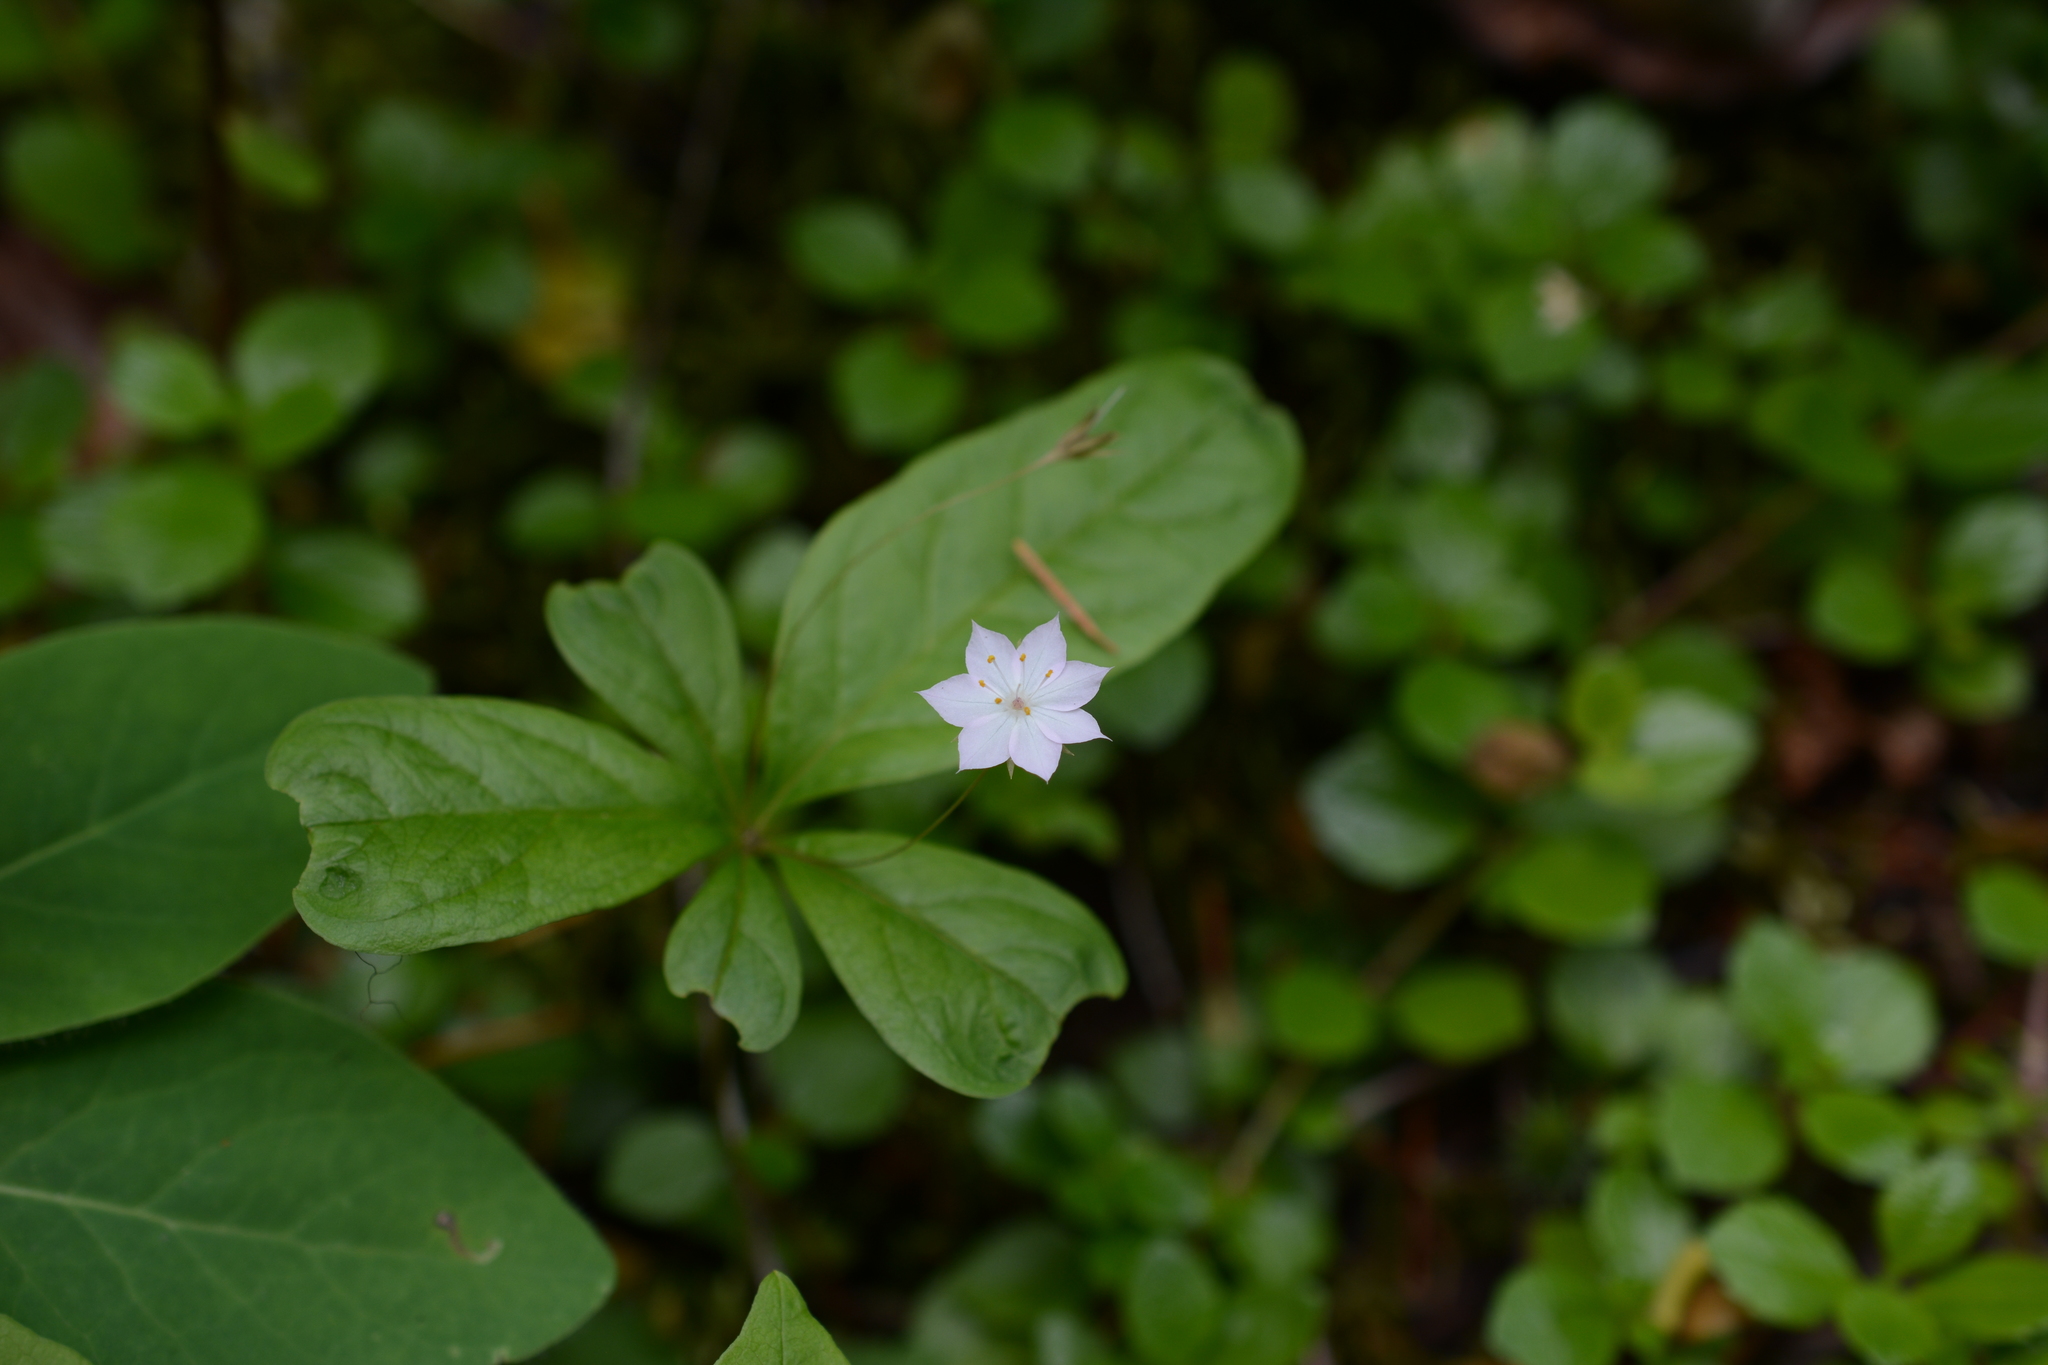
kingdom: Plantae
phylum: Tracheophyta
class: Magnoliopsida
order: Ericales
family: Primulaceae
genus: Lysimachia
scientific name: Lysimachia latifolia
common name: Pacific starflower
